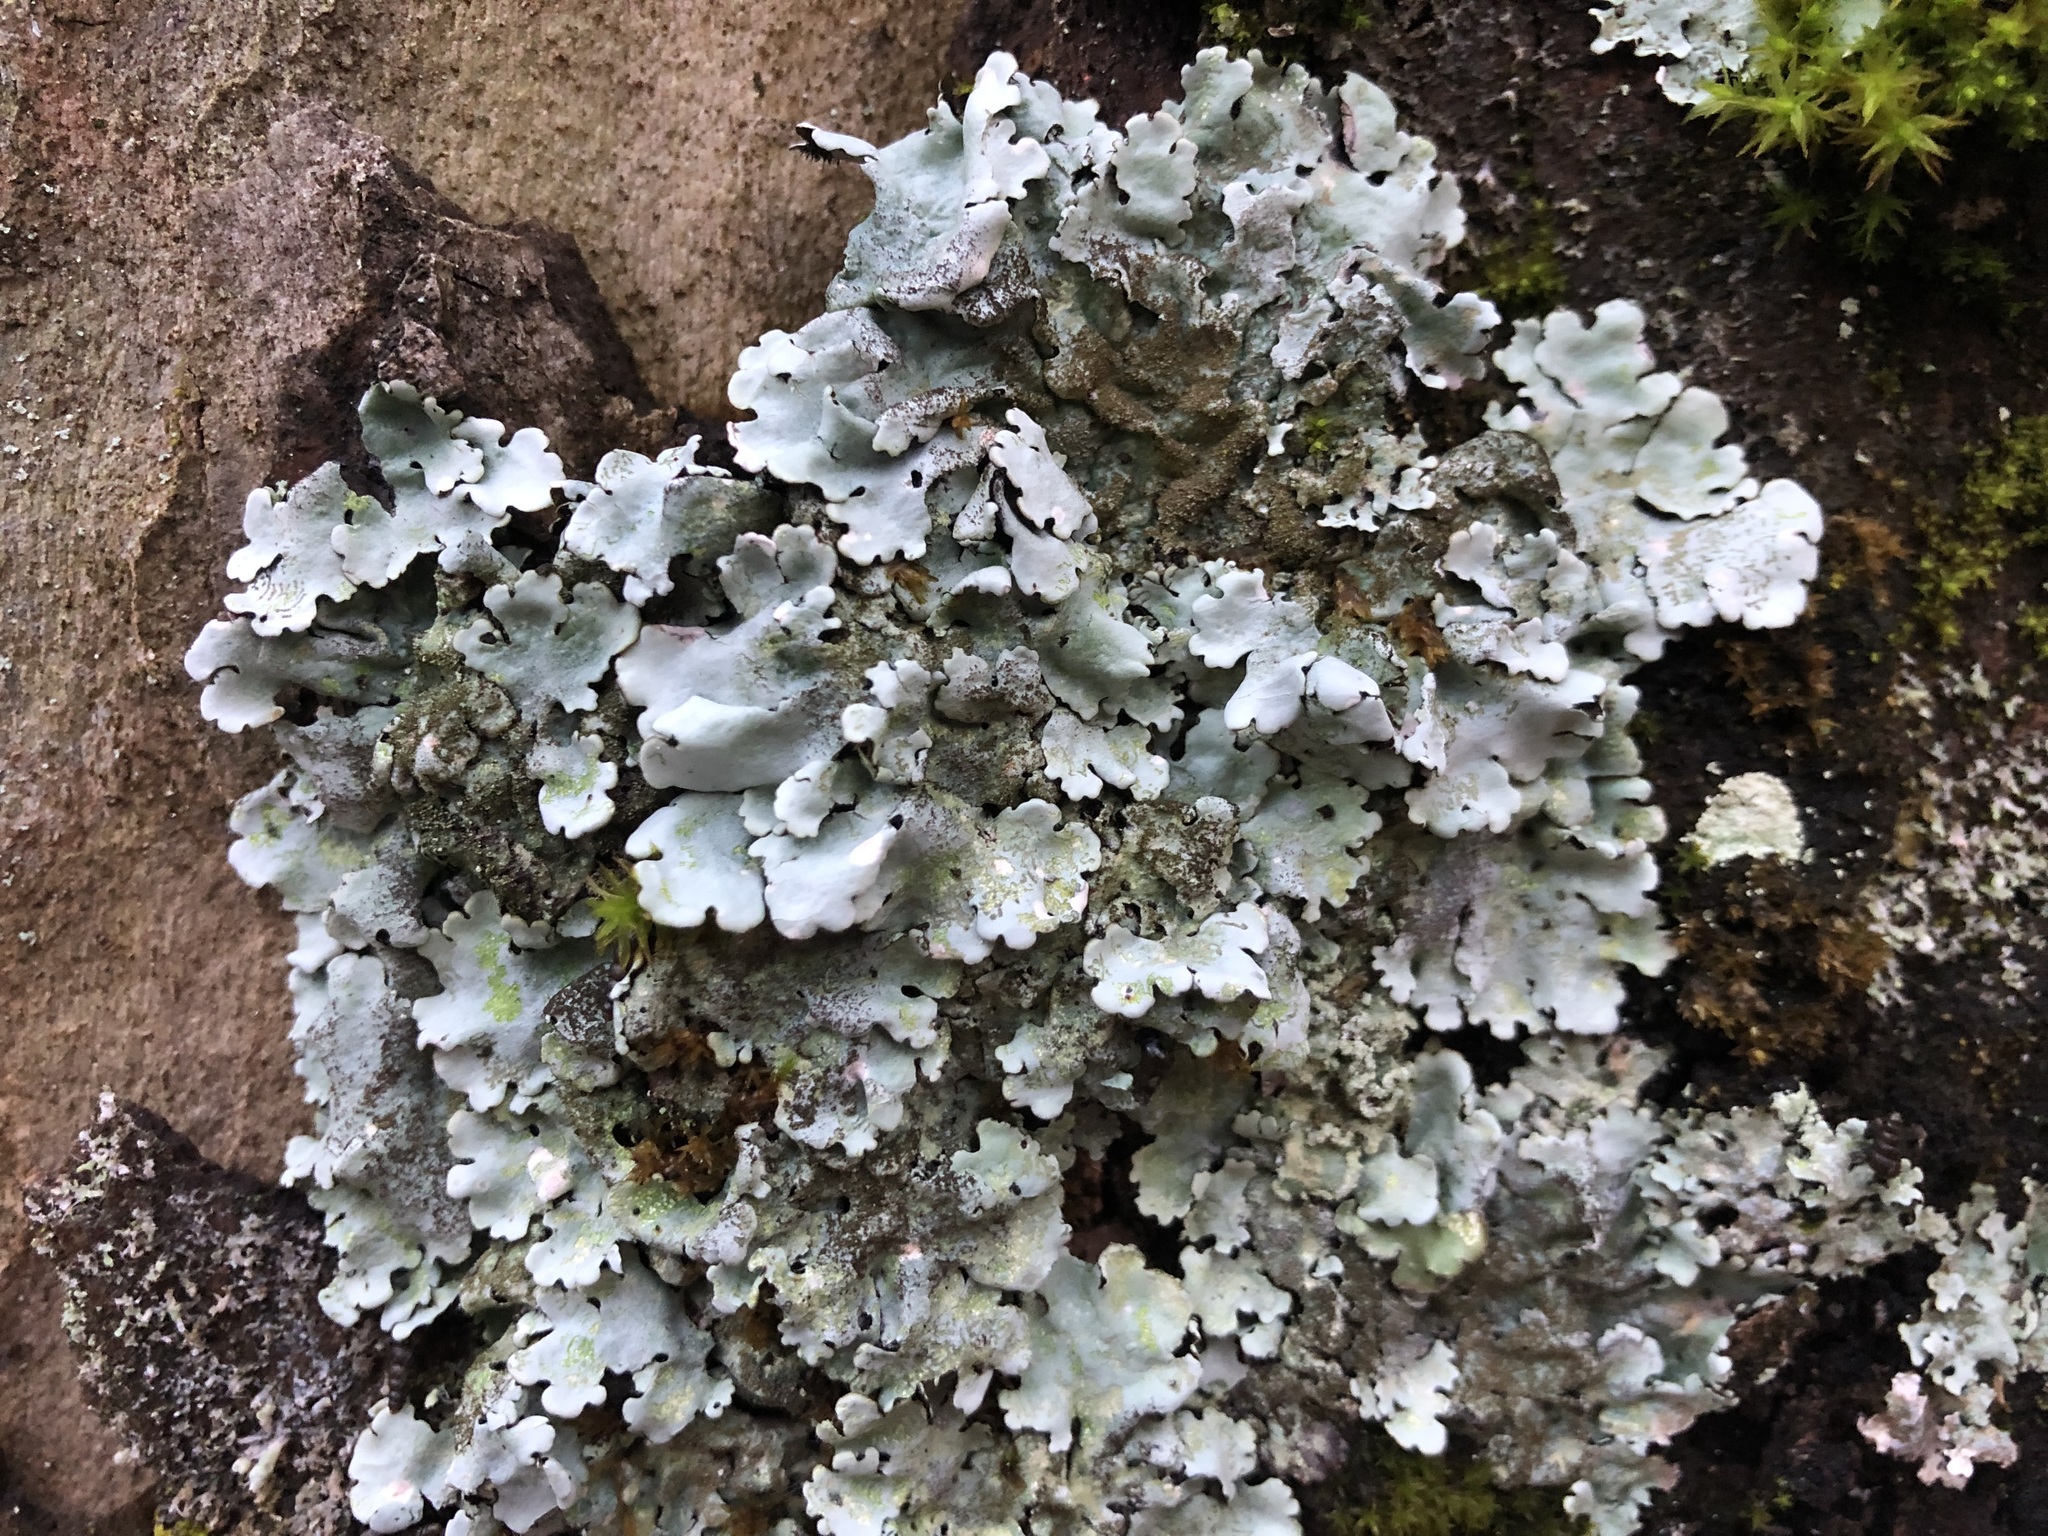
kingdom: Fungi
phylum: Ascomycota
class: Lecanoromycetes
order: Lecanorales
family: Parmeliaceae
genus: Parmelina
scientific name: Parmelina tiliacea
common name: Linden shield lichen
